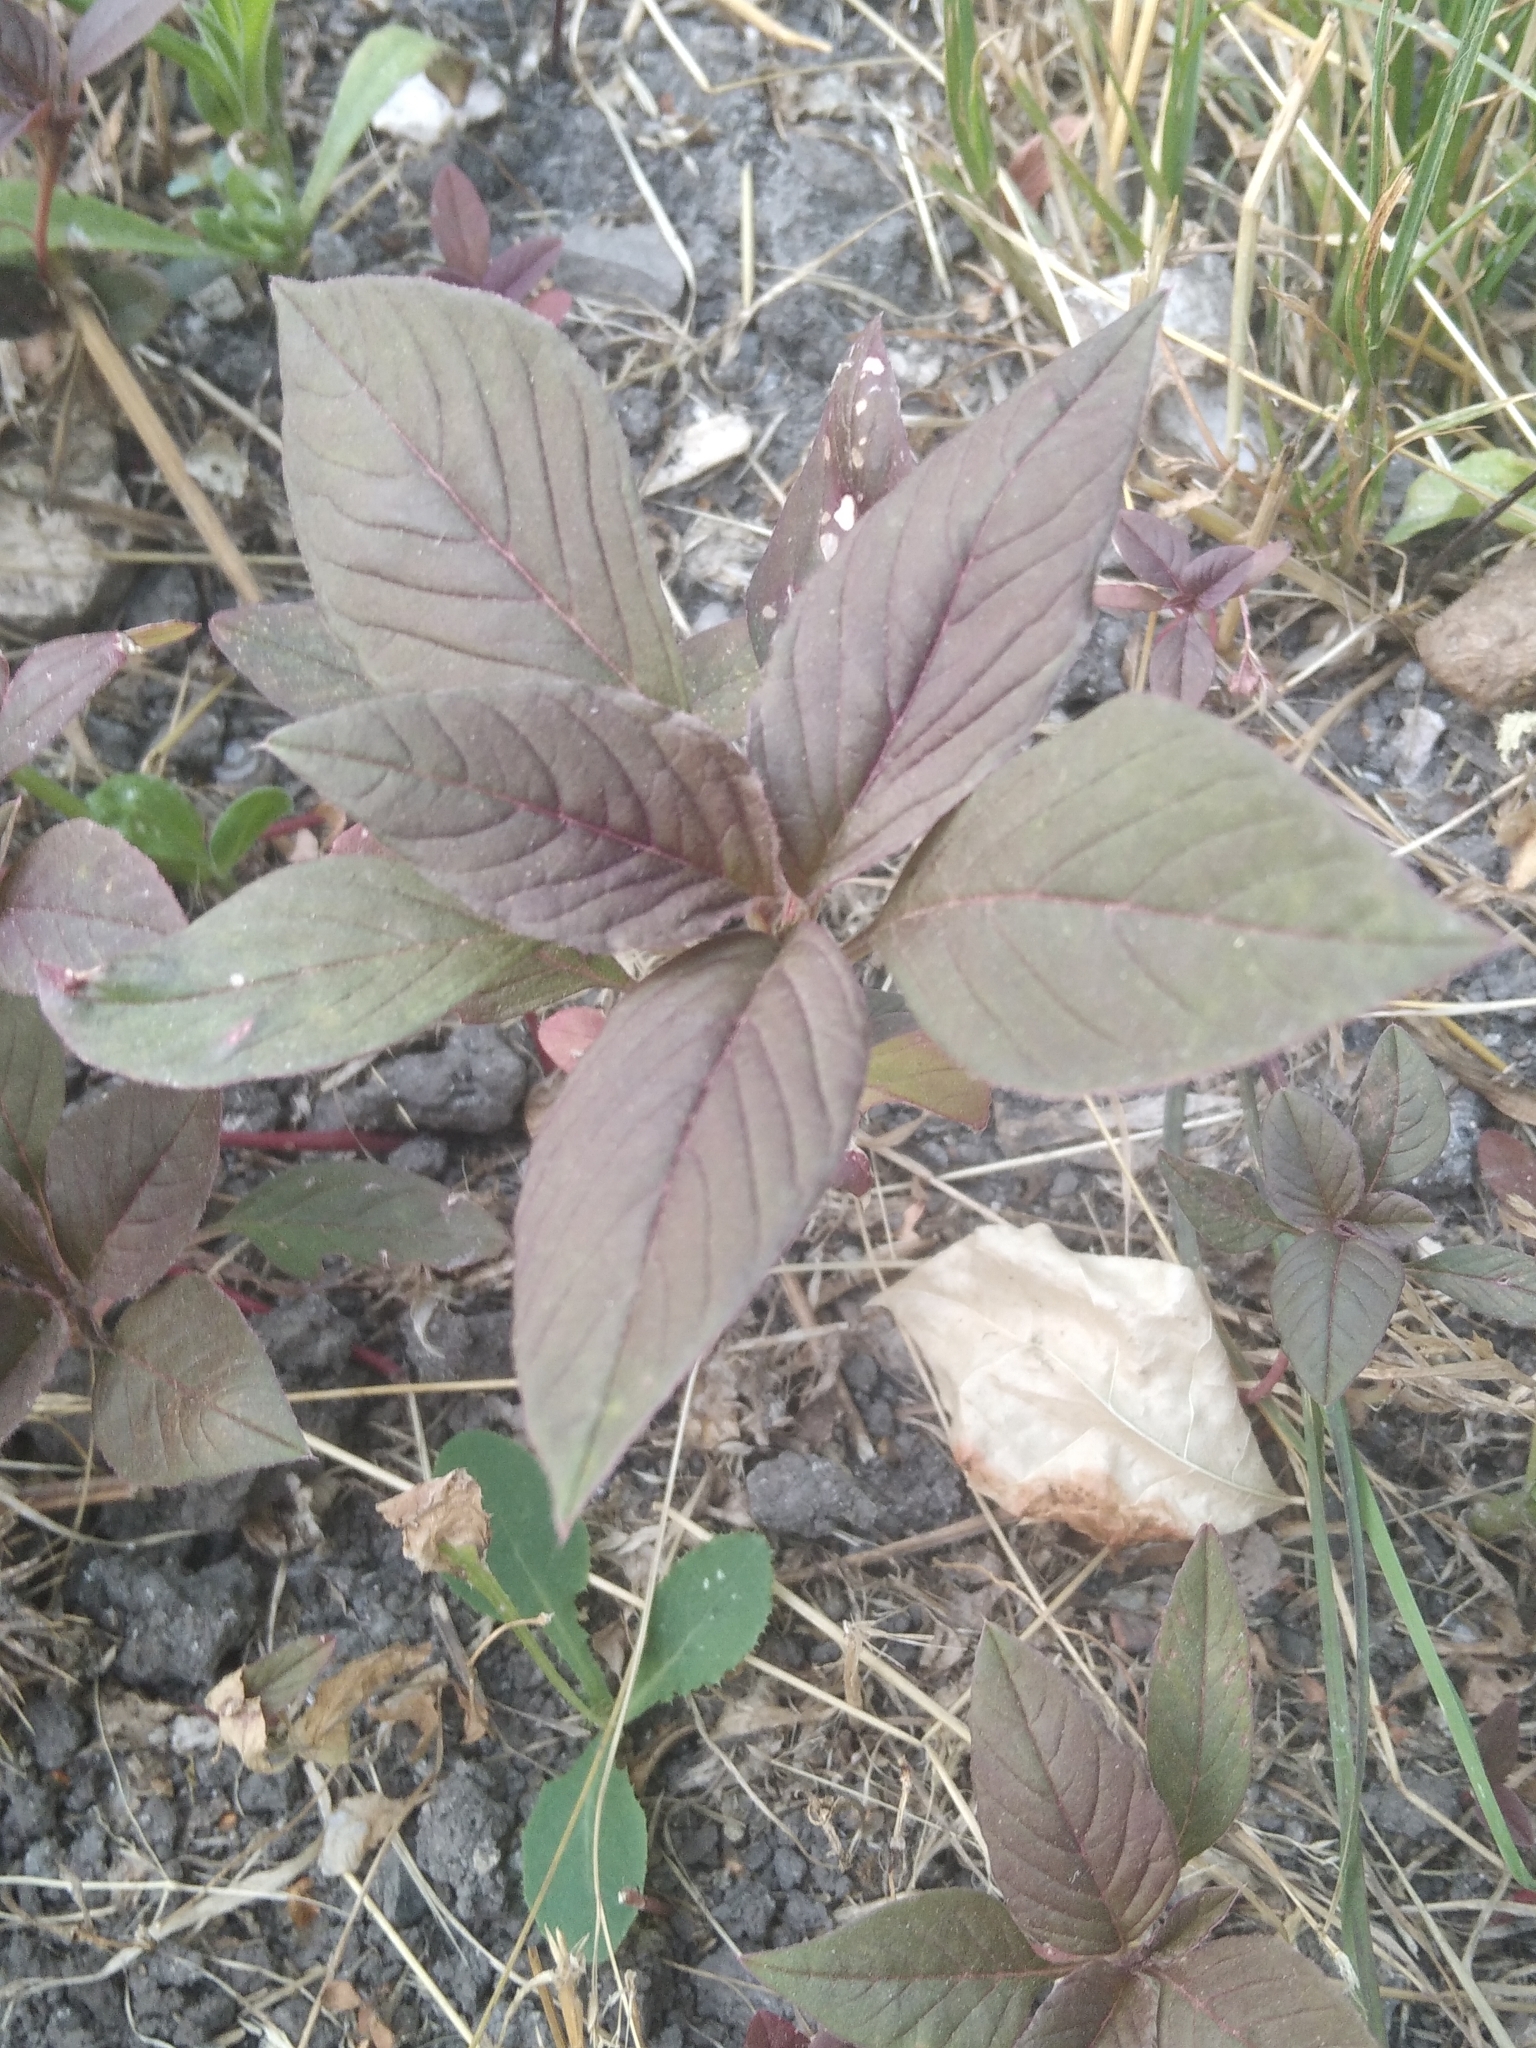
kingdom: Plantae
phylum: Tracheophyta
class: Magnoliopsida
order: Caryophyllales
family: Amaranthaceae
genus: Amaranthus
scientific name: Amaranthus cruentus
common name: Purple amaranth
